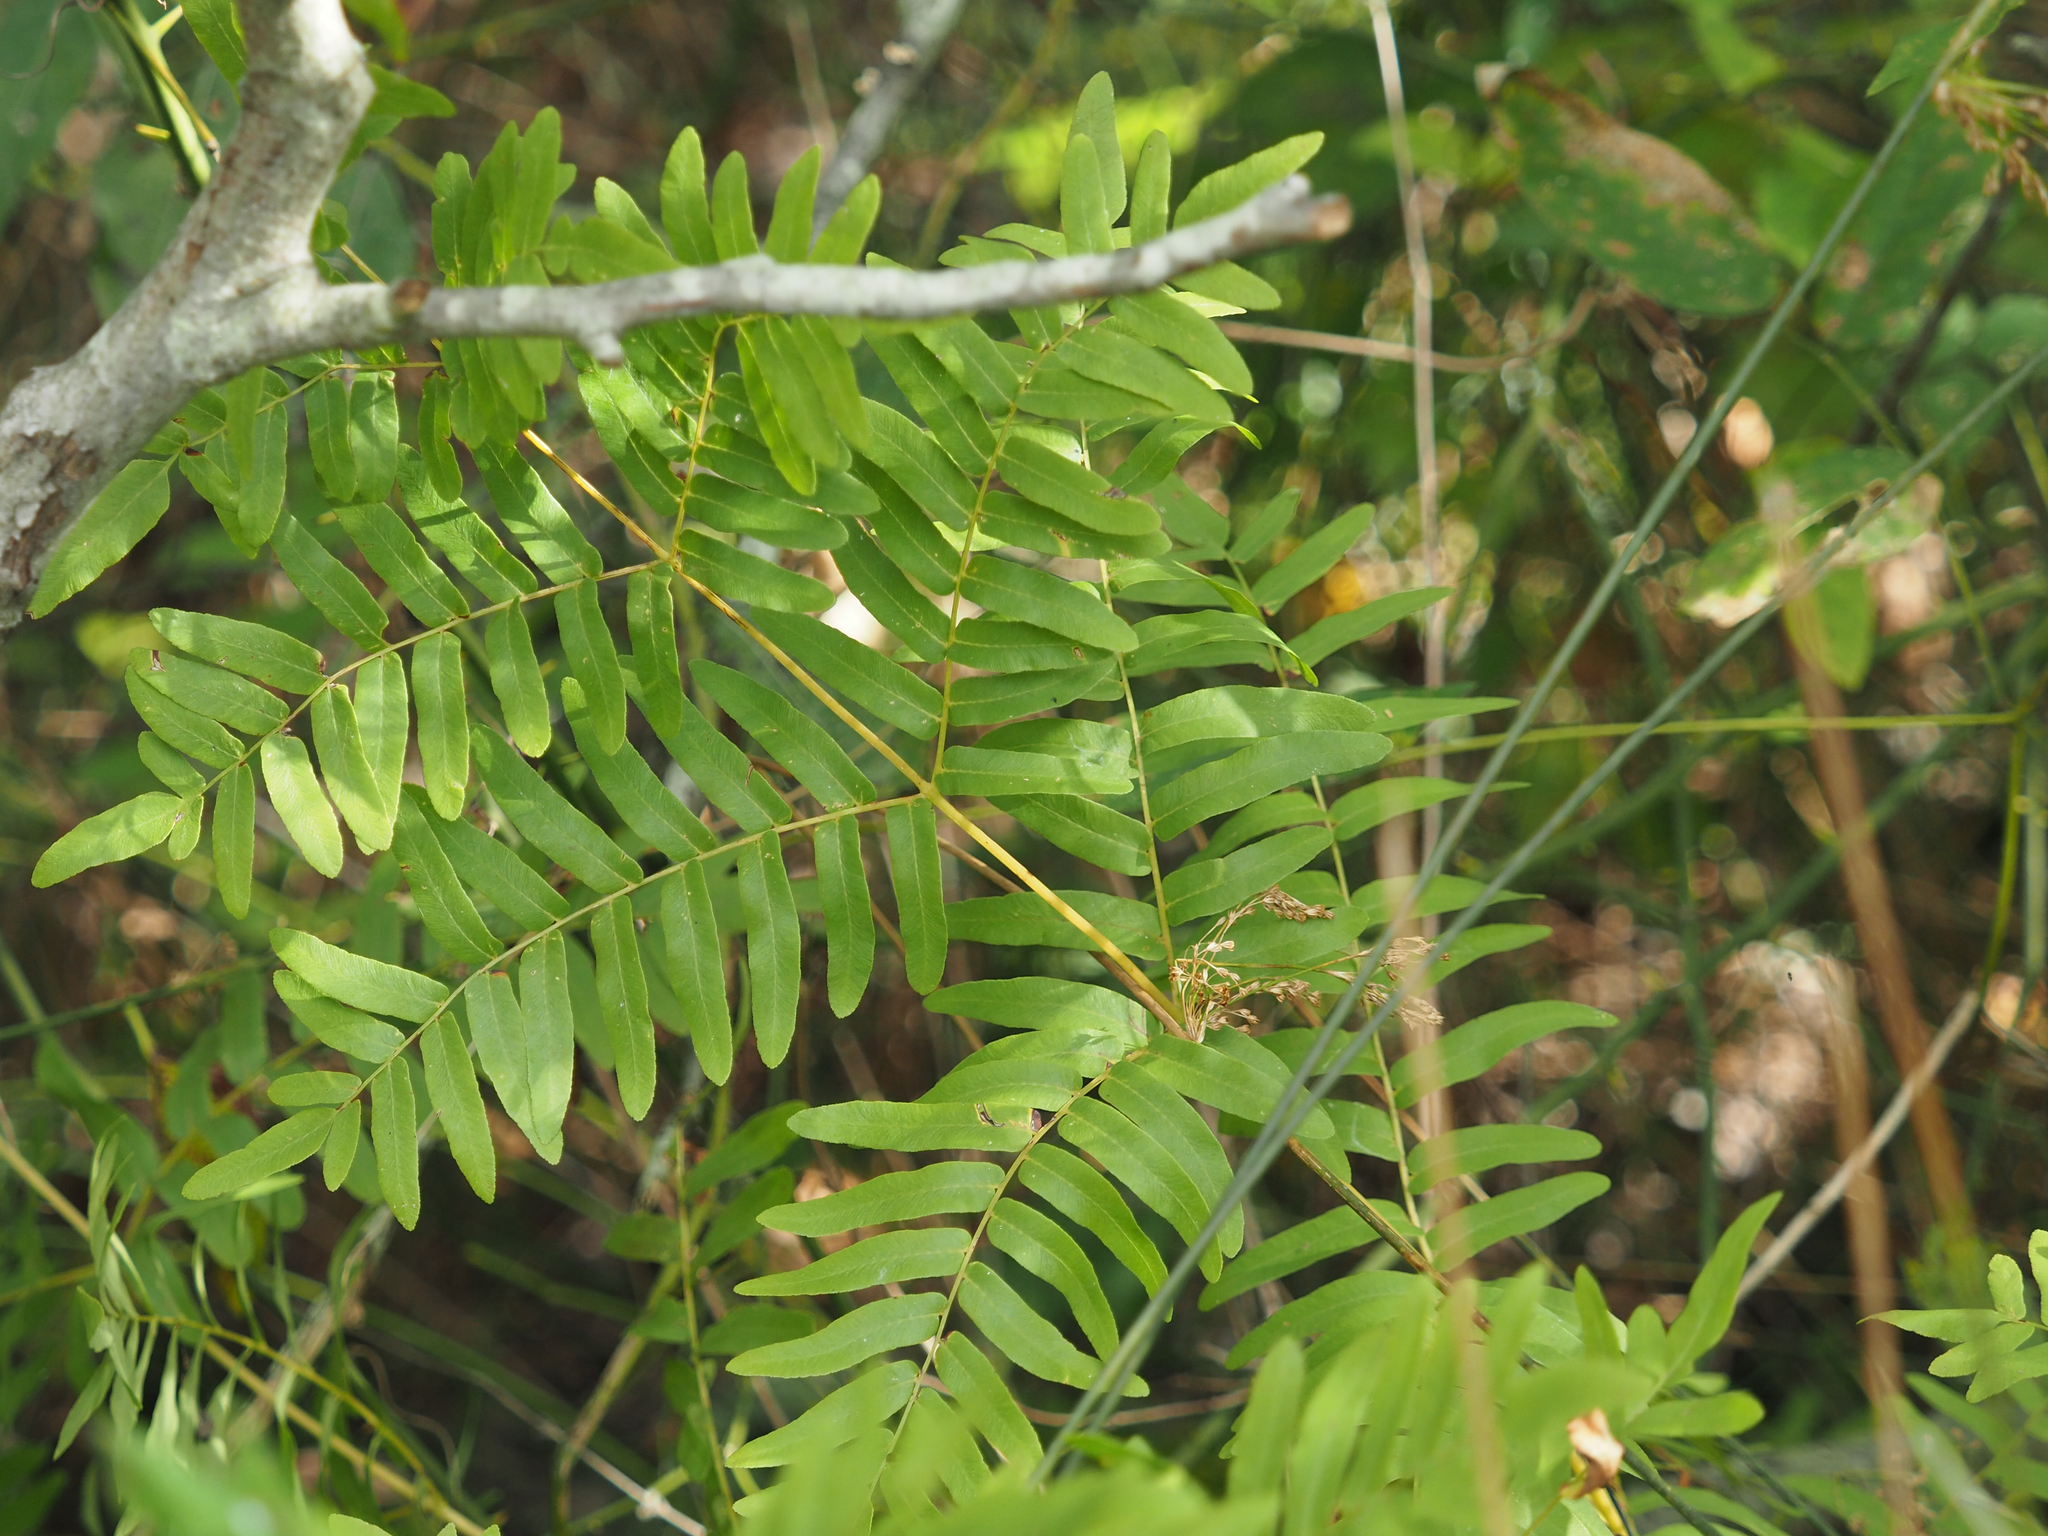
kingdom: Plantae
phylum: Tracheophyta
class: Polypodiopsida
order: Osmundales
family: Osmundaceae
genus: Osmunda
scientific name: Osmunda spectabilis
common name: American royal fern
